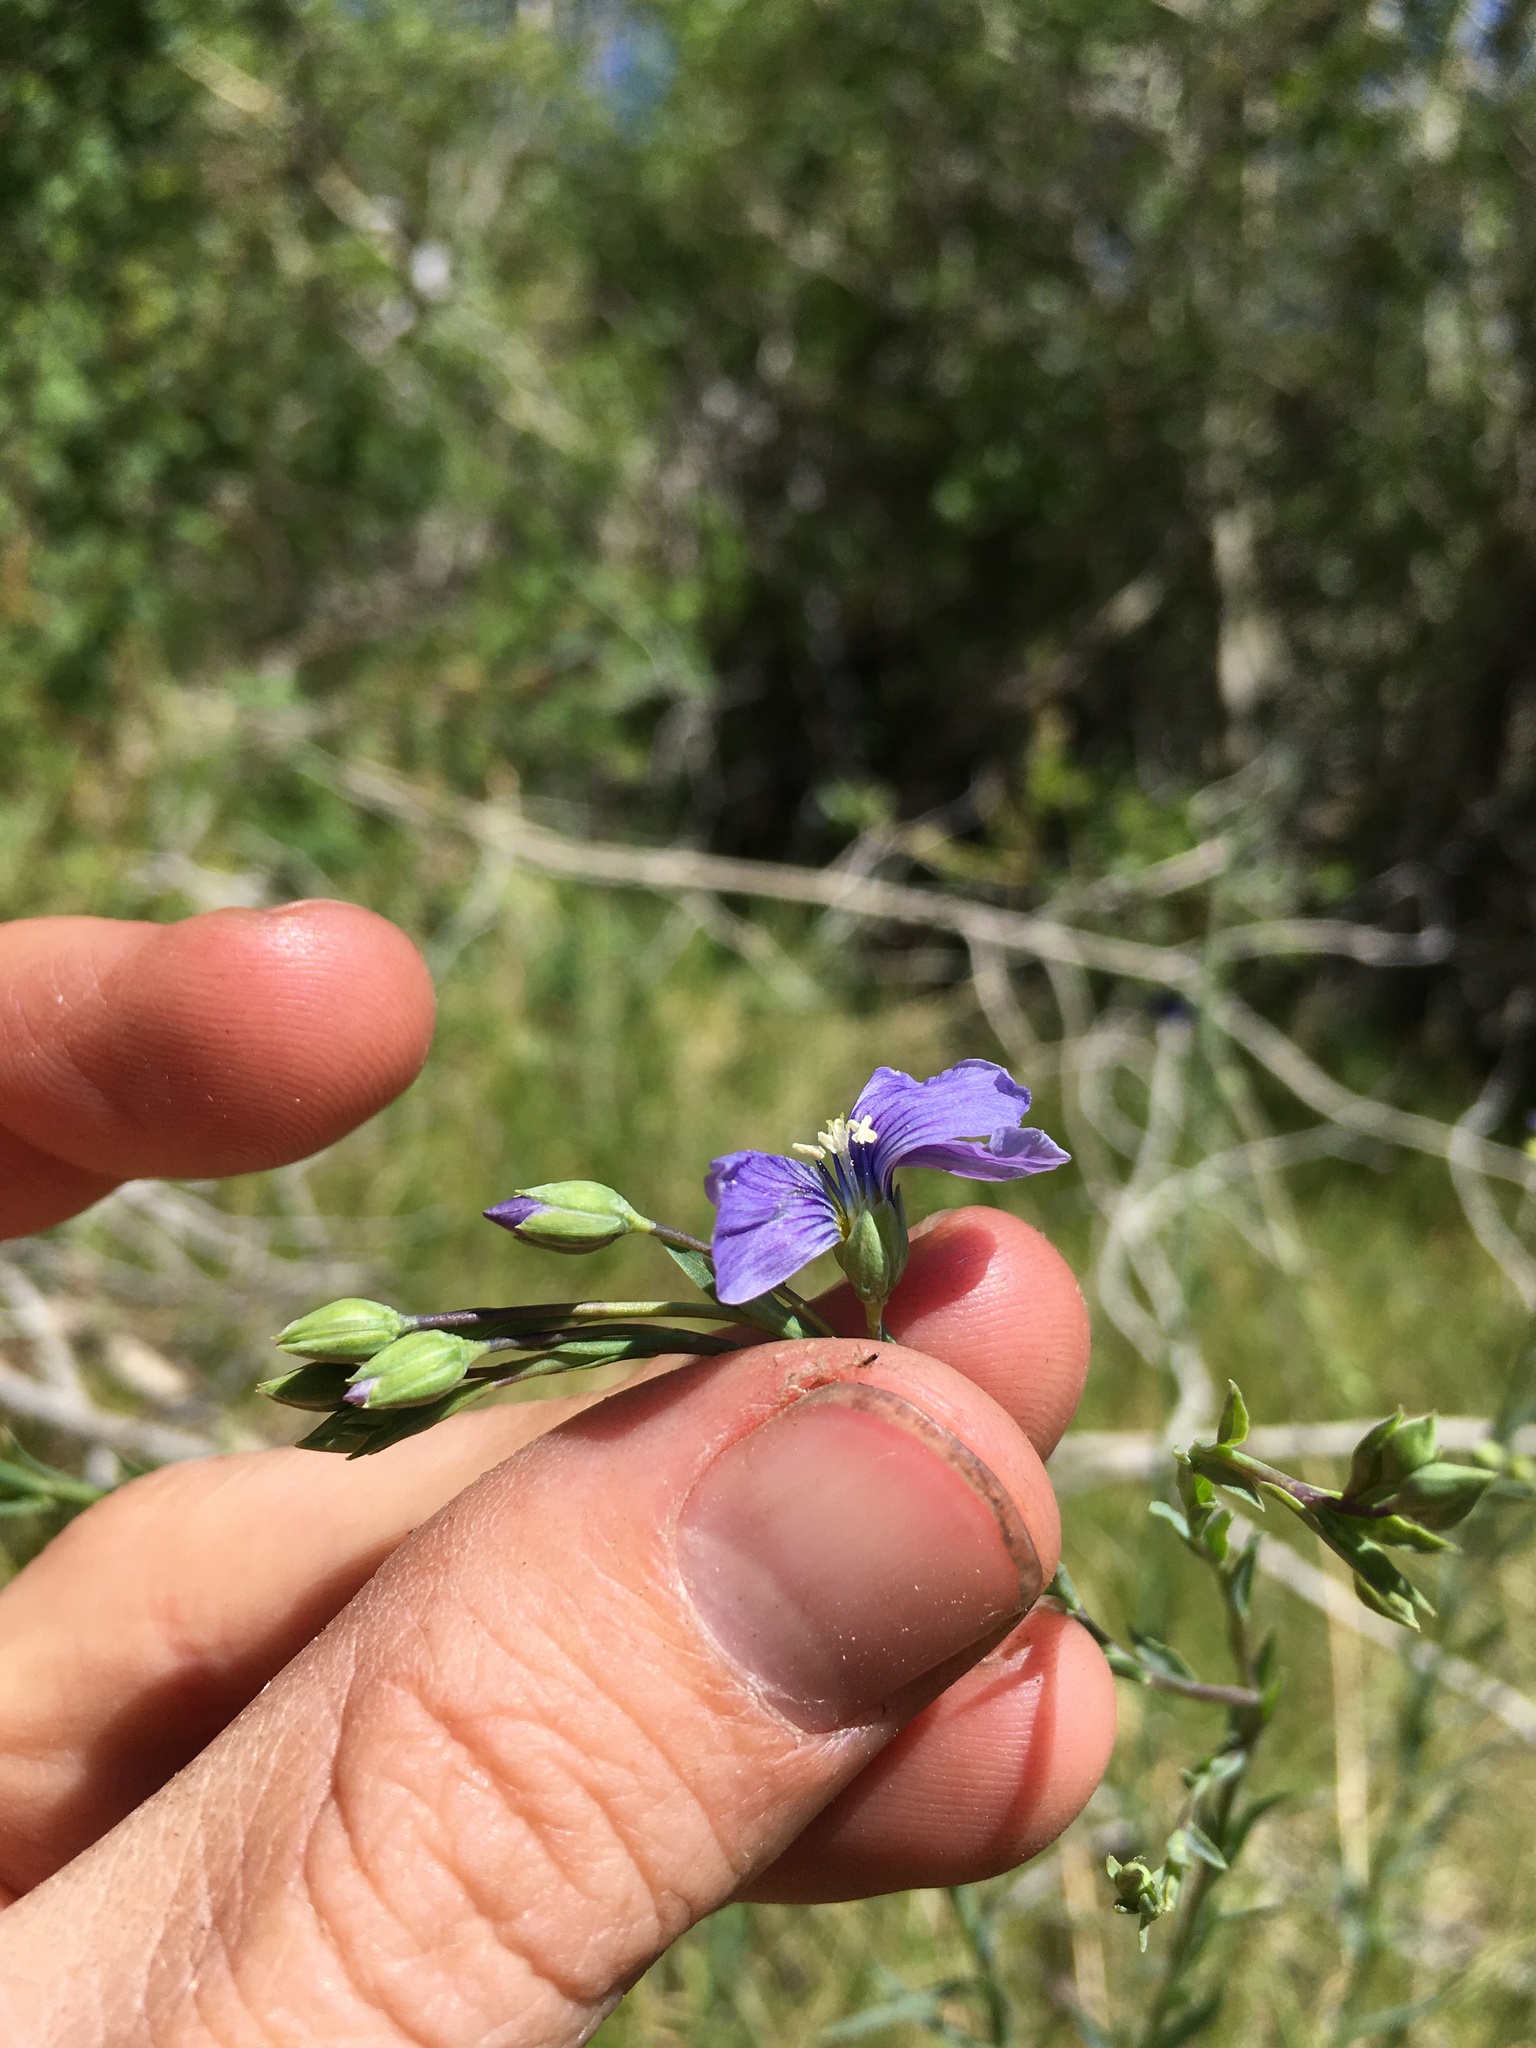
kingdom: Plantae
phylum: Tracheophyta
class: Magnoliopsida
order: Malpighiales
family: Linaceae
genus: Linum
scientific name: Linum lewisii
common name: Prairie flax
